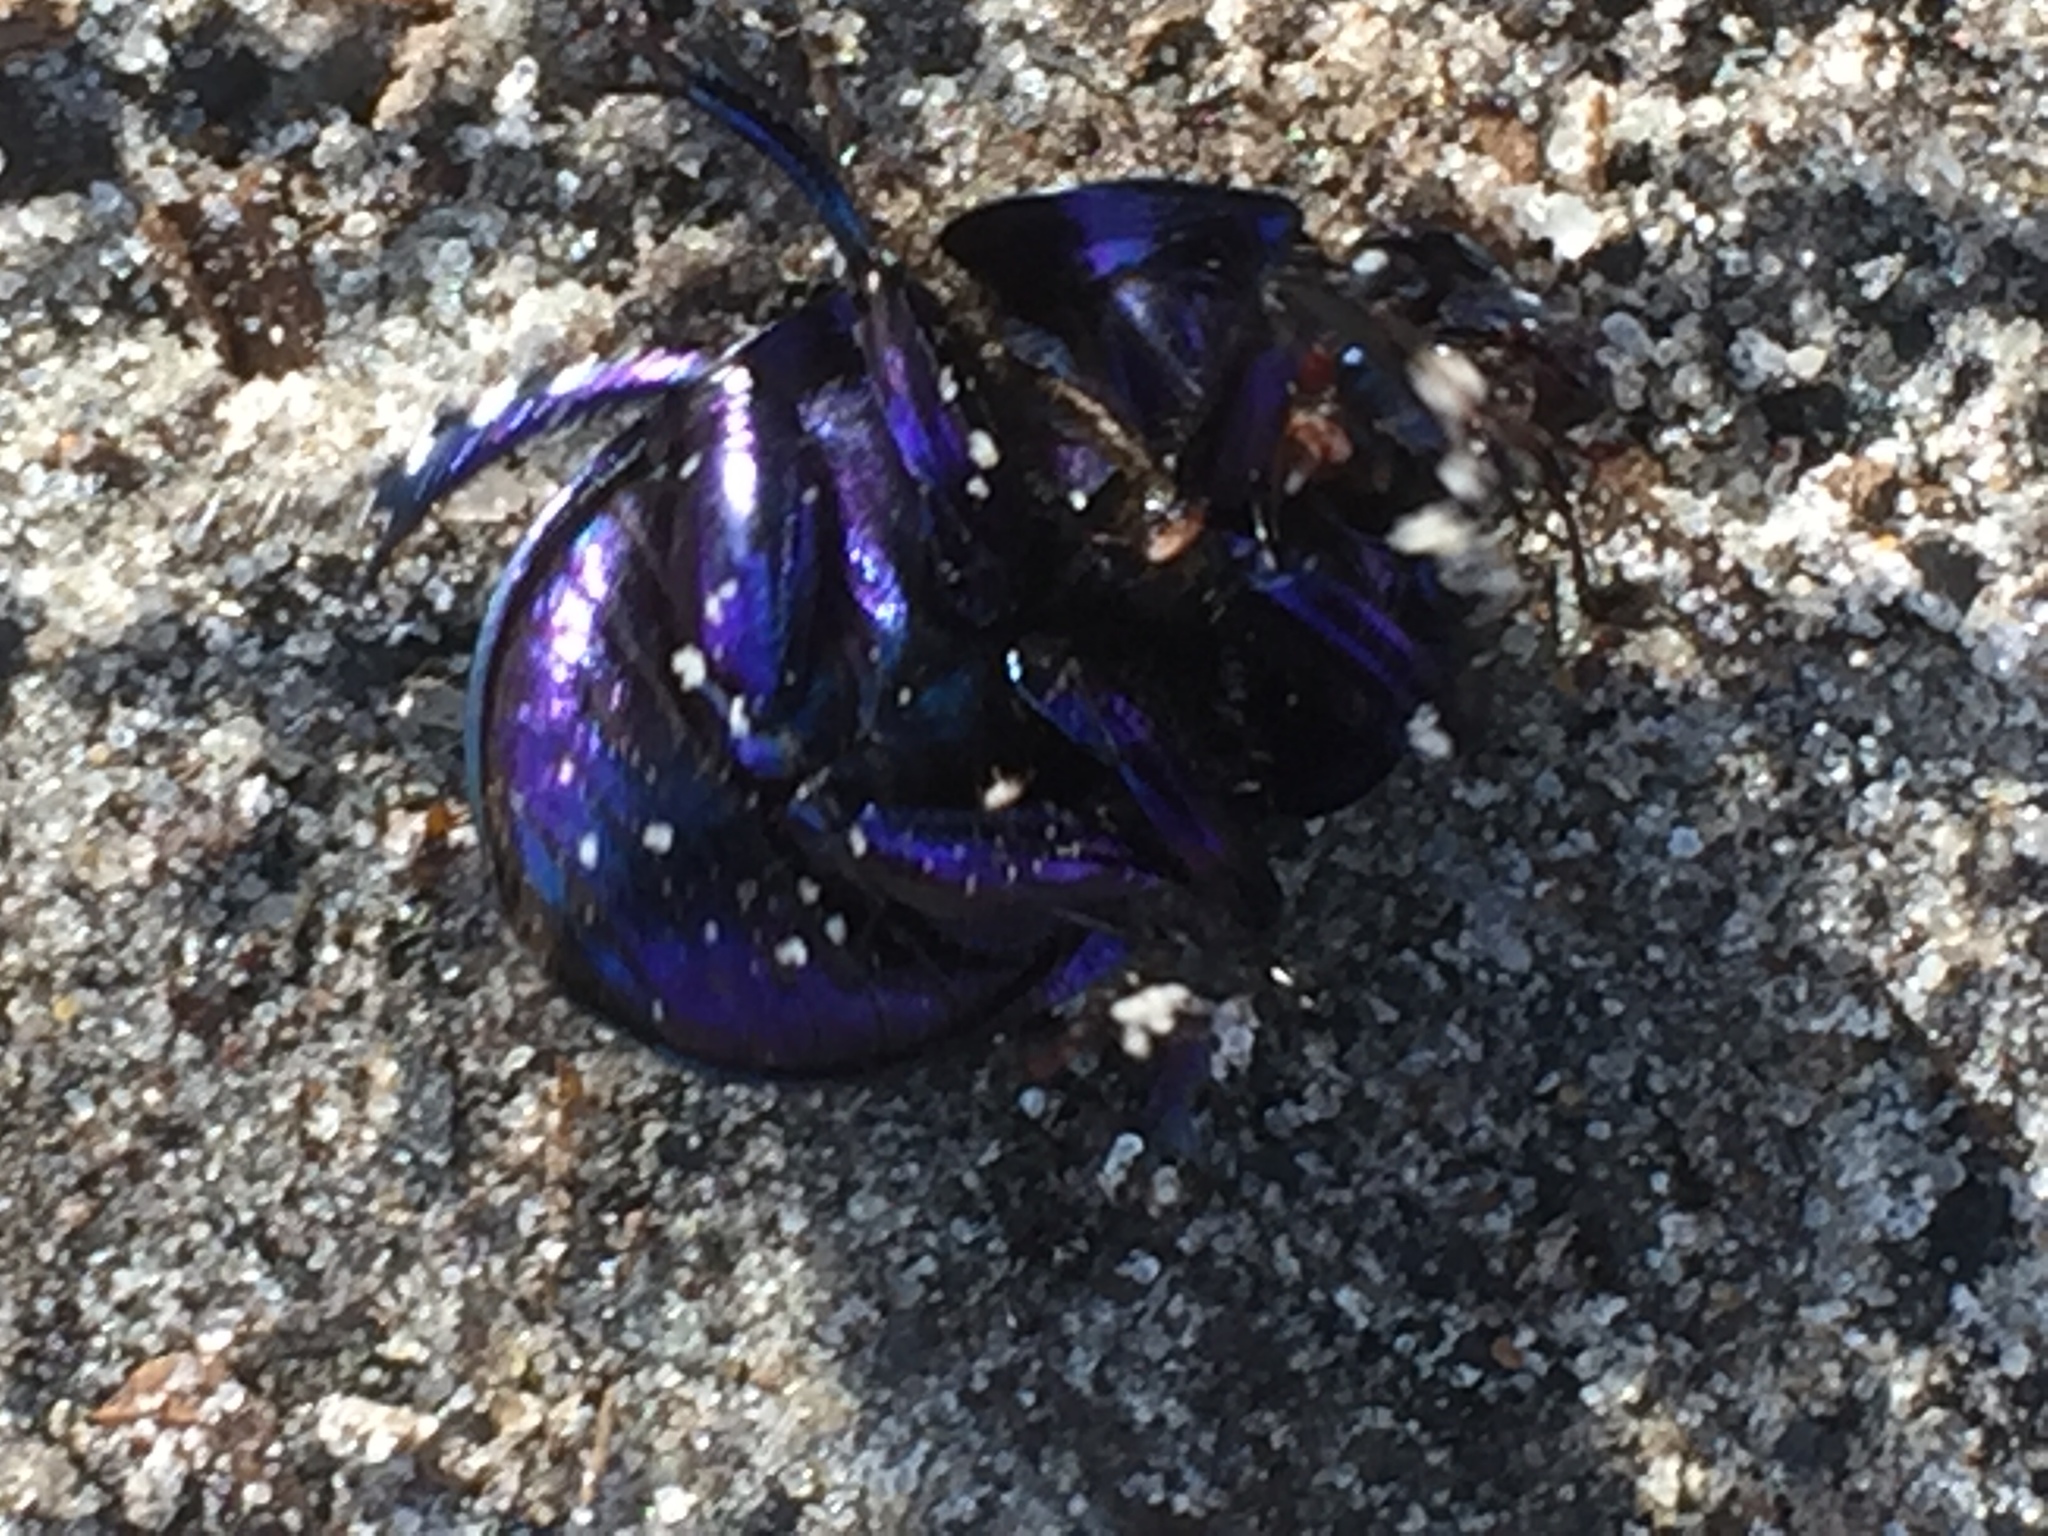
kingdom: Animalia
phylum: Arthropoda
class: Insecta
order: Coleoptera
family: Geotrupidae
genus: Anoplotrupes
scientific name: Anoplotrupes stercorosus
